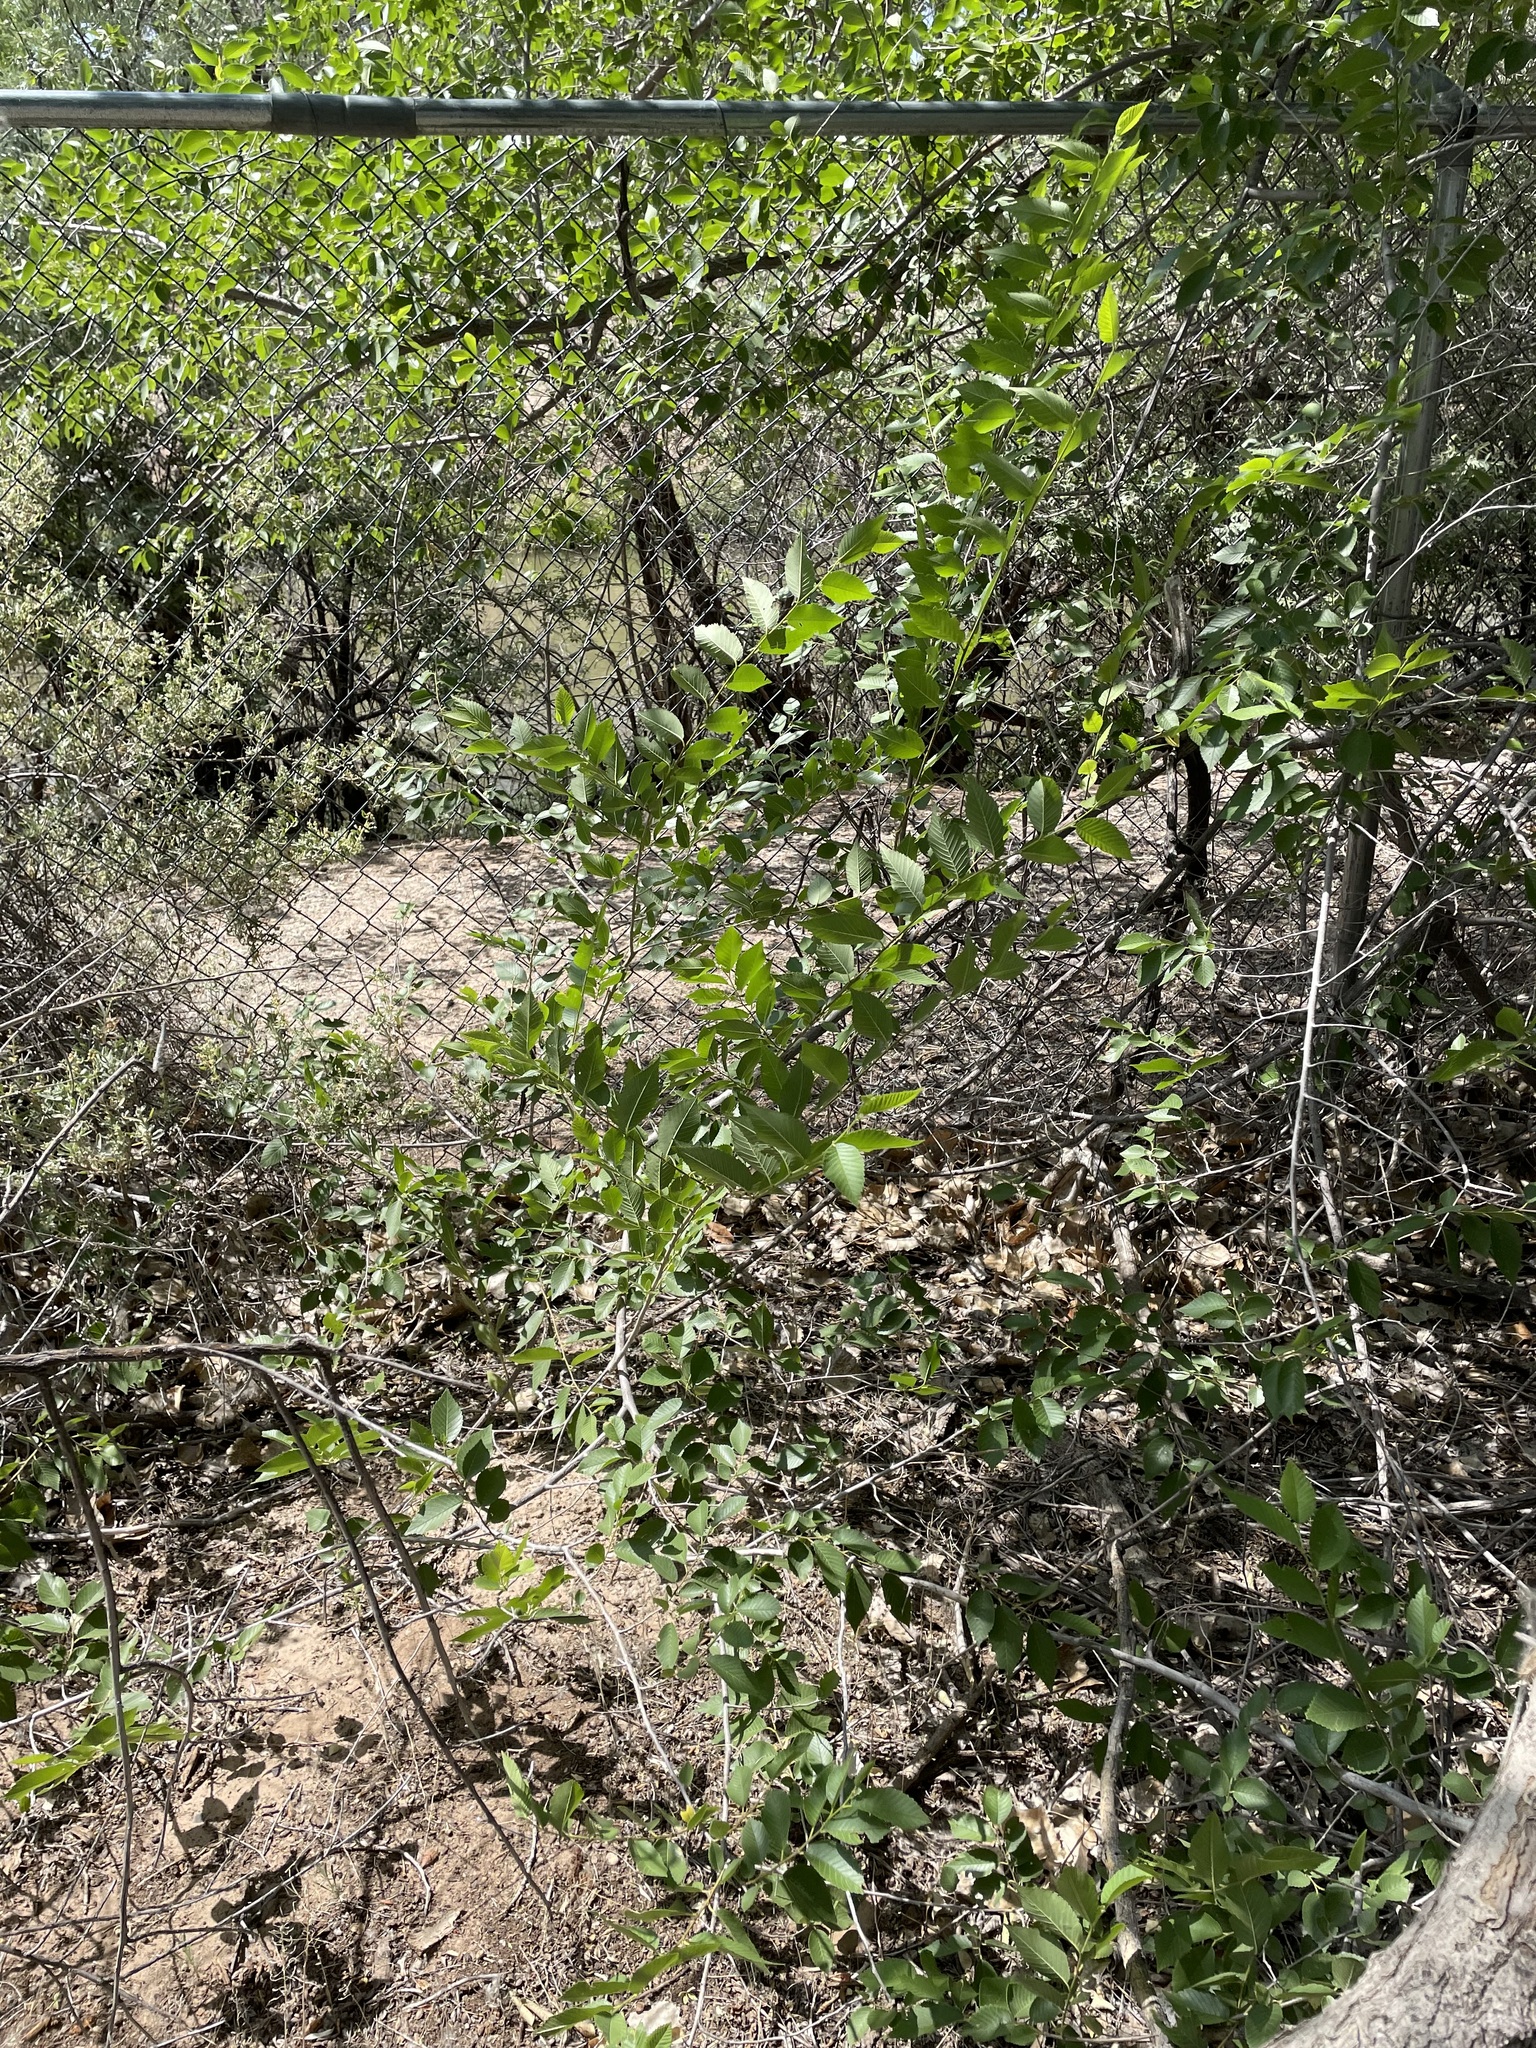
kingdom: Plantae
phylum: Tracheophyta
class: Magnoliopsida
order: Rosales
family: Ulmaceae
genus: Ulmus
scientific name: Ulmus pumila
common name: Siberian elm
